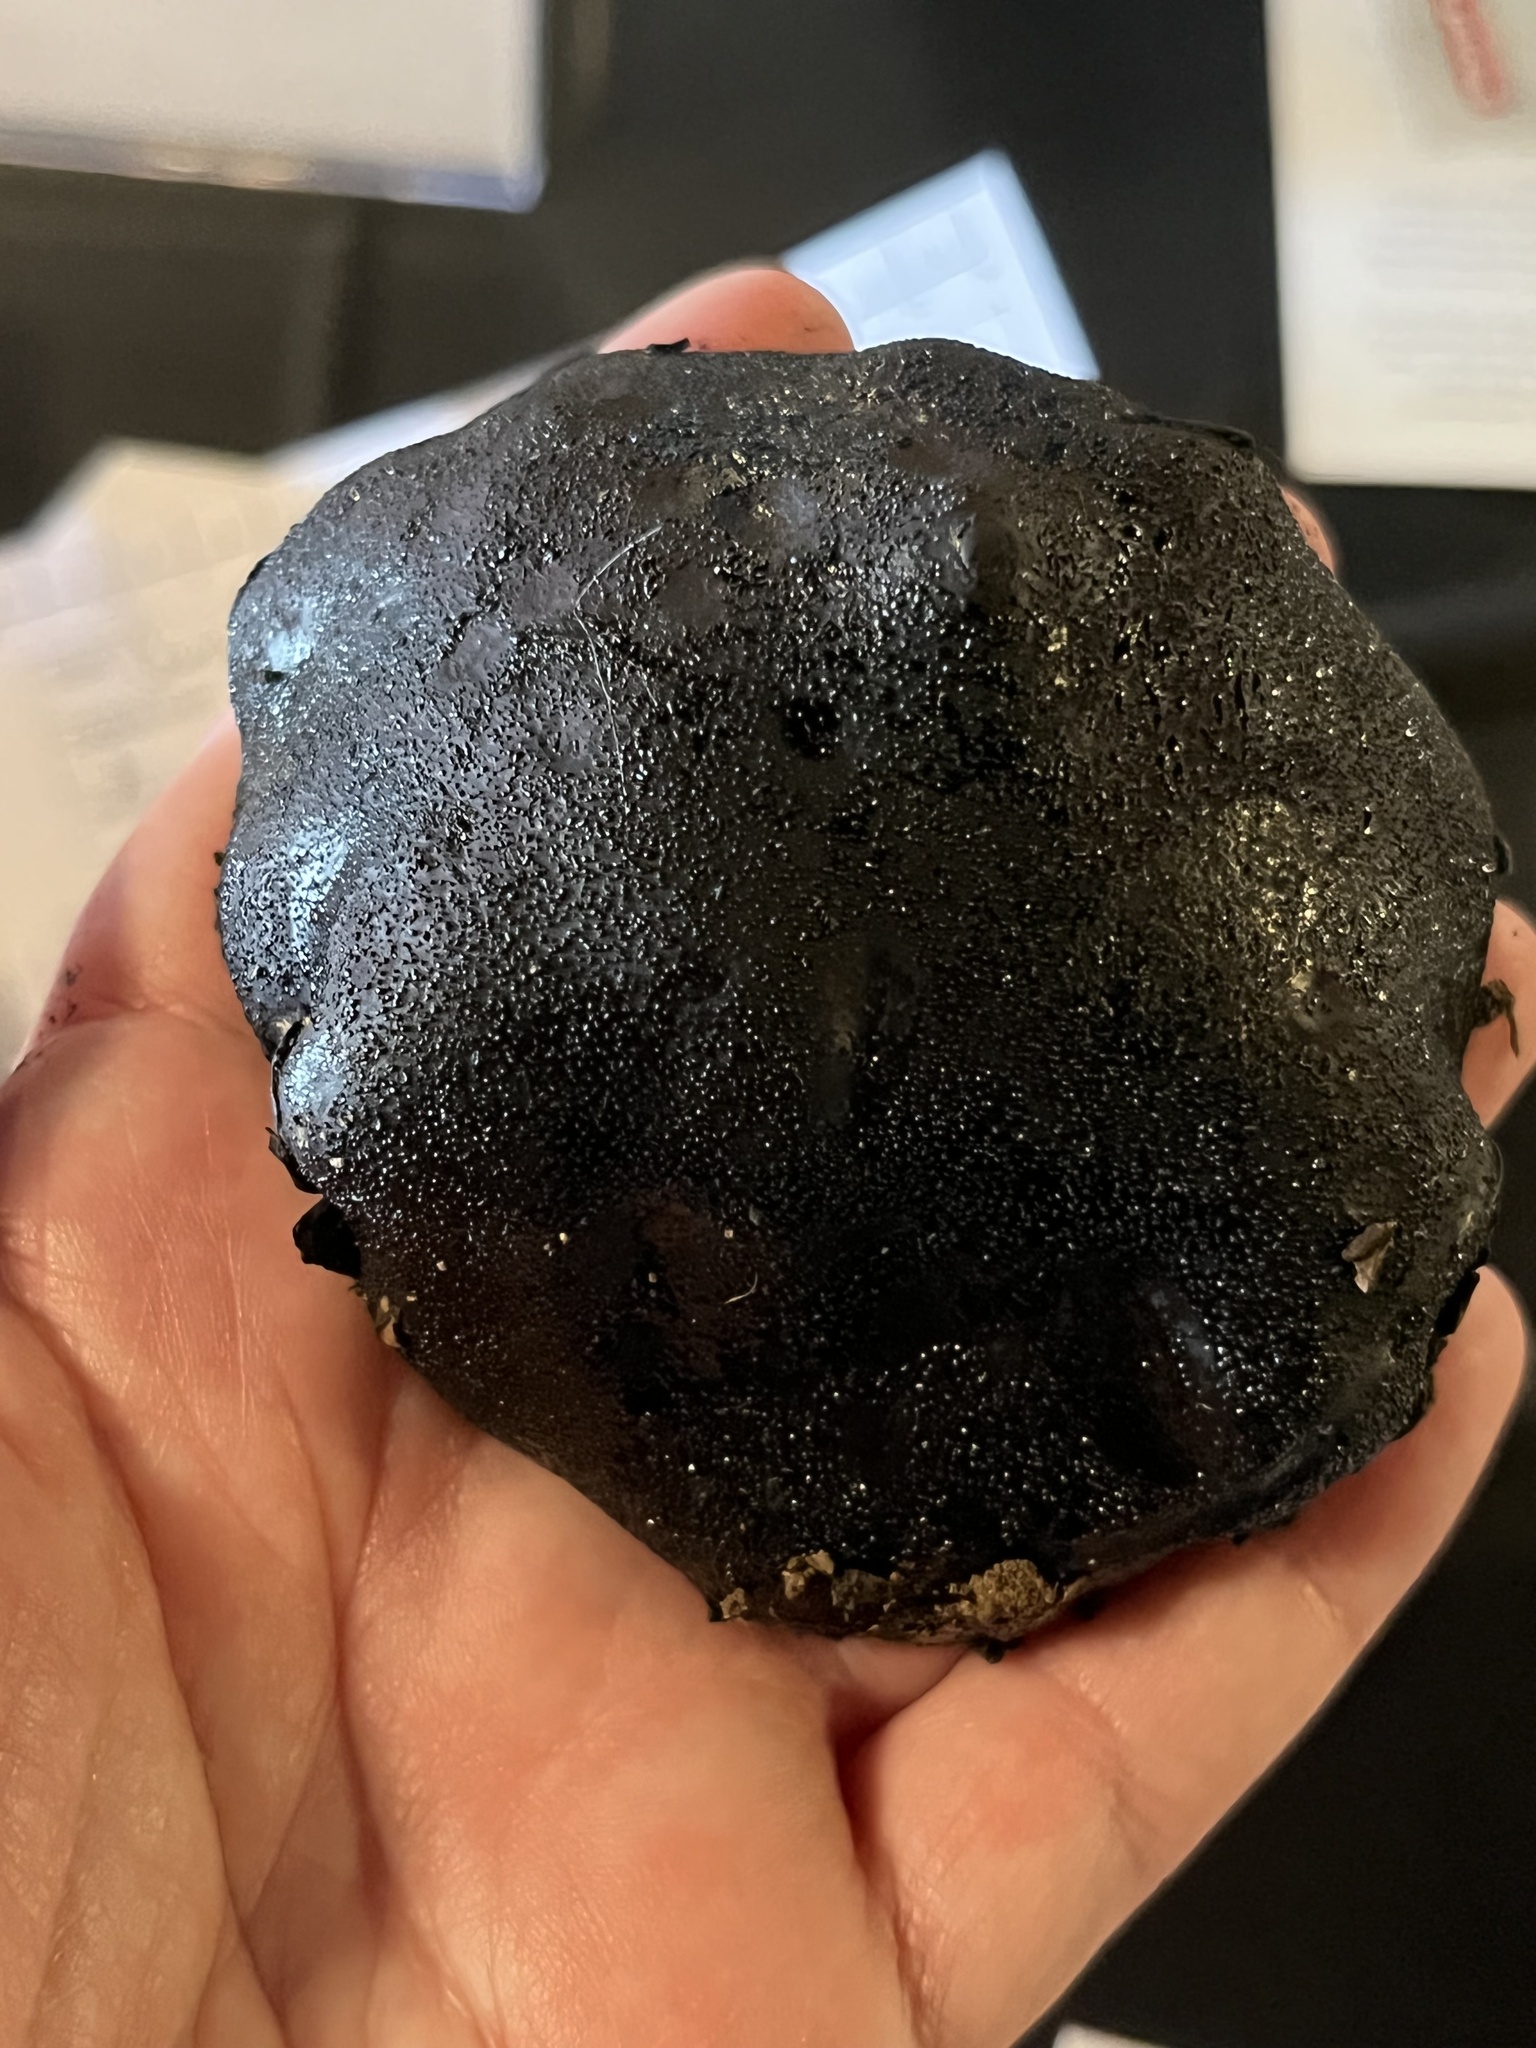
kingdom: Fungi
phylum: Ascomycota
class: Sordariomycetes
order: Boliniales
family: Boliniaceae
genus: Camarops
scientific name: Camarops petersii
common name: Dog's nose fungus
